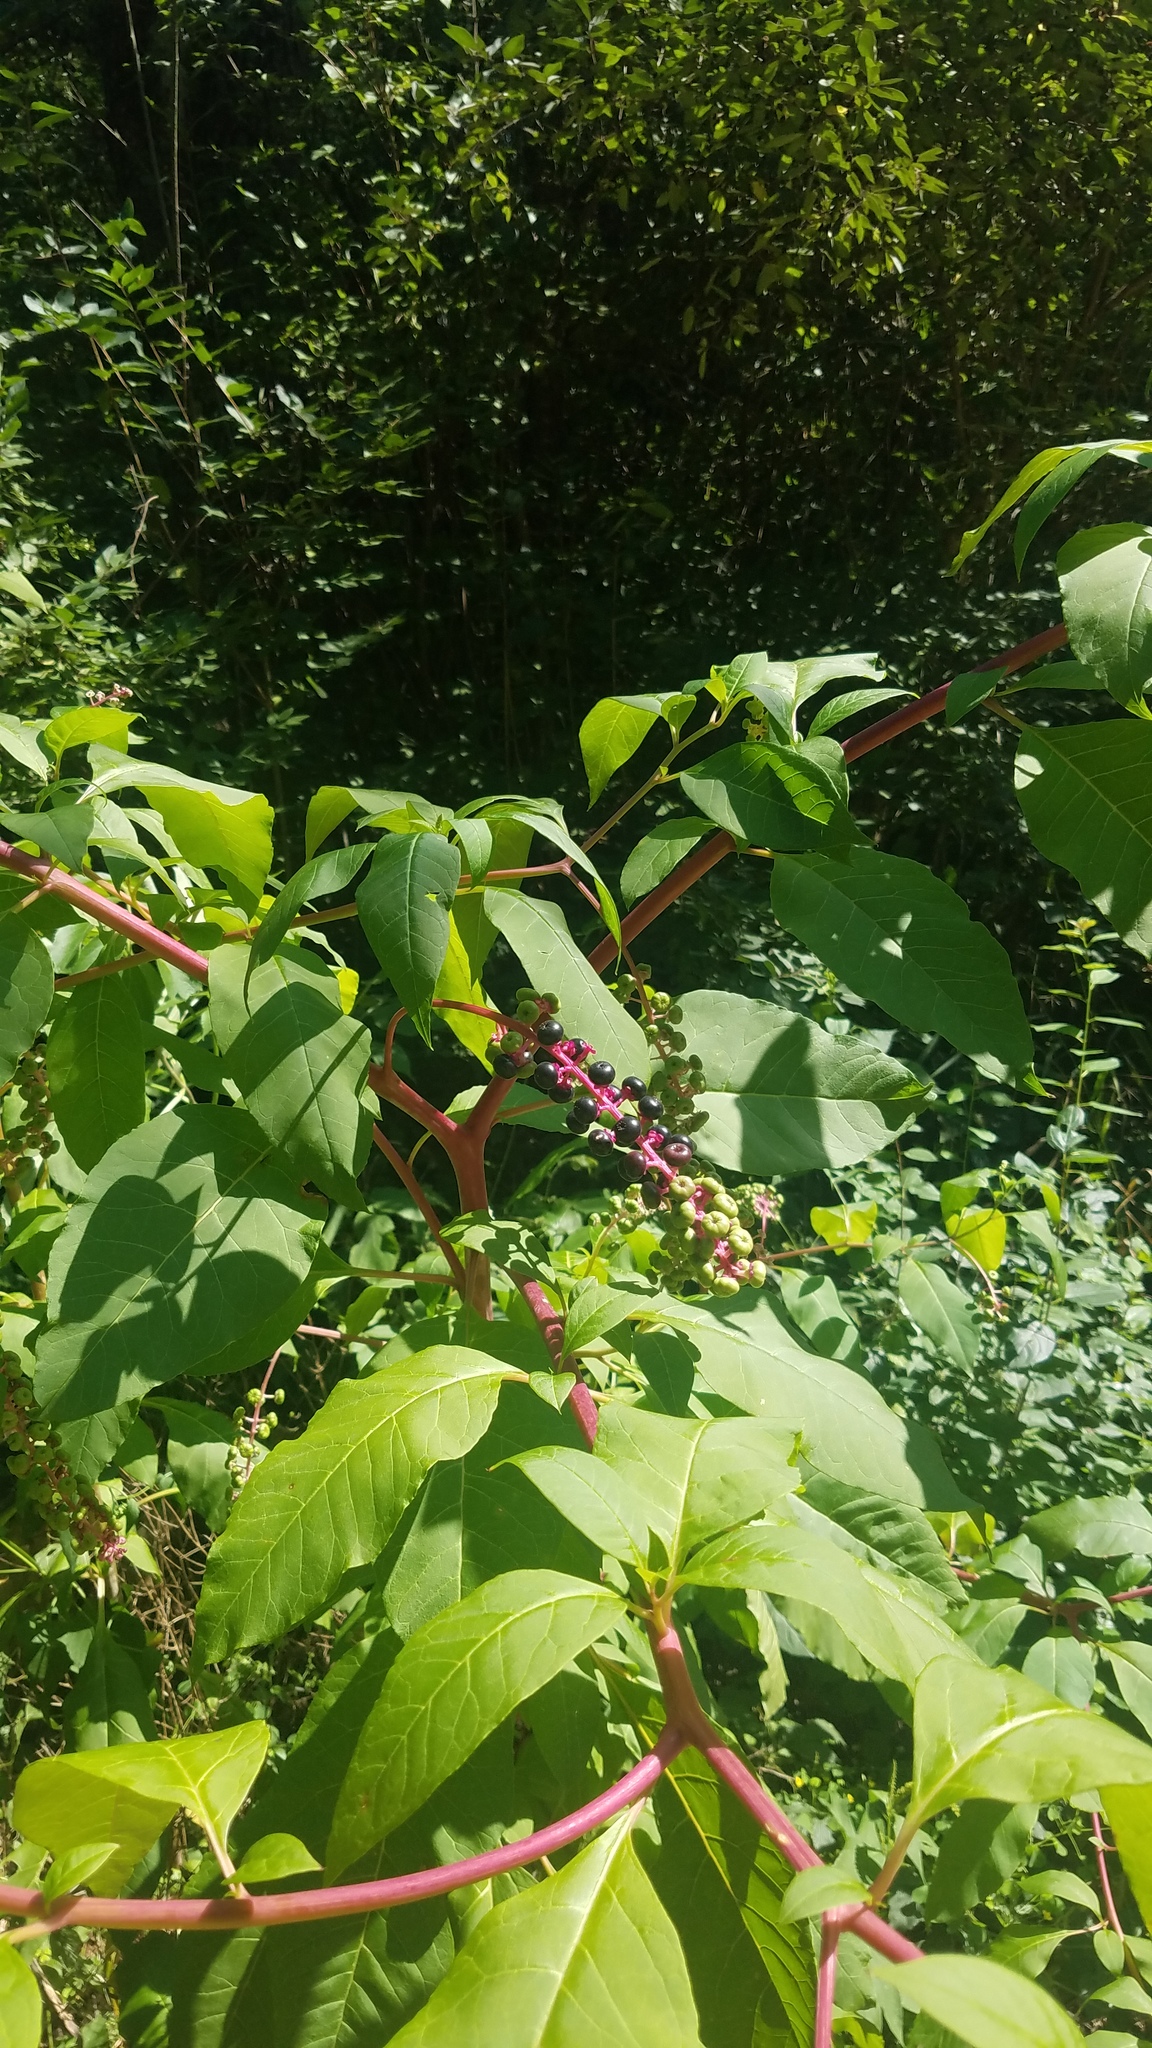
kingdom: Plantae
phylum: Tracheophyta
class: Magnoliopsida
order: Caryophyllales
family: Phytolaccaceae
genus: Phytolacca
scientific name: Phytolacca americana
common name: American pokeweed
